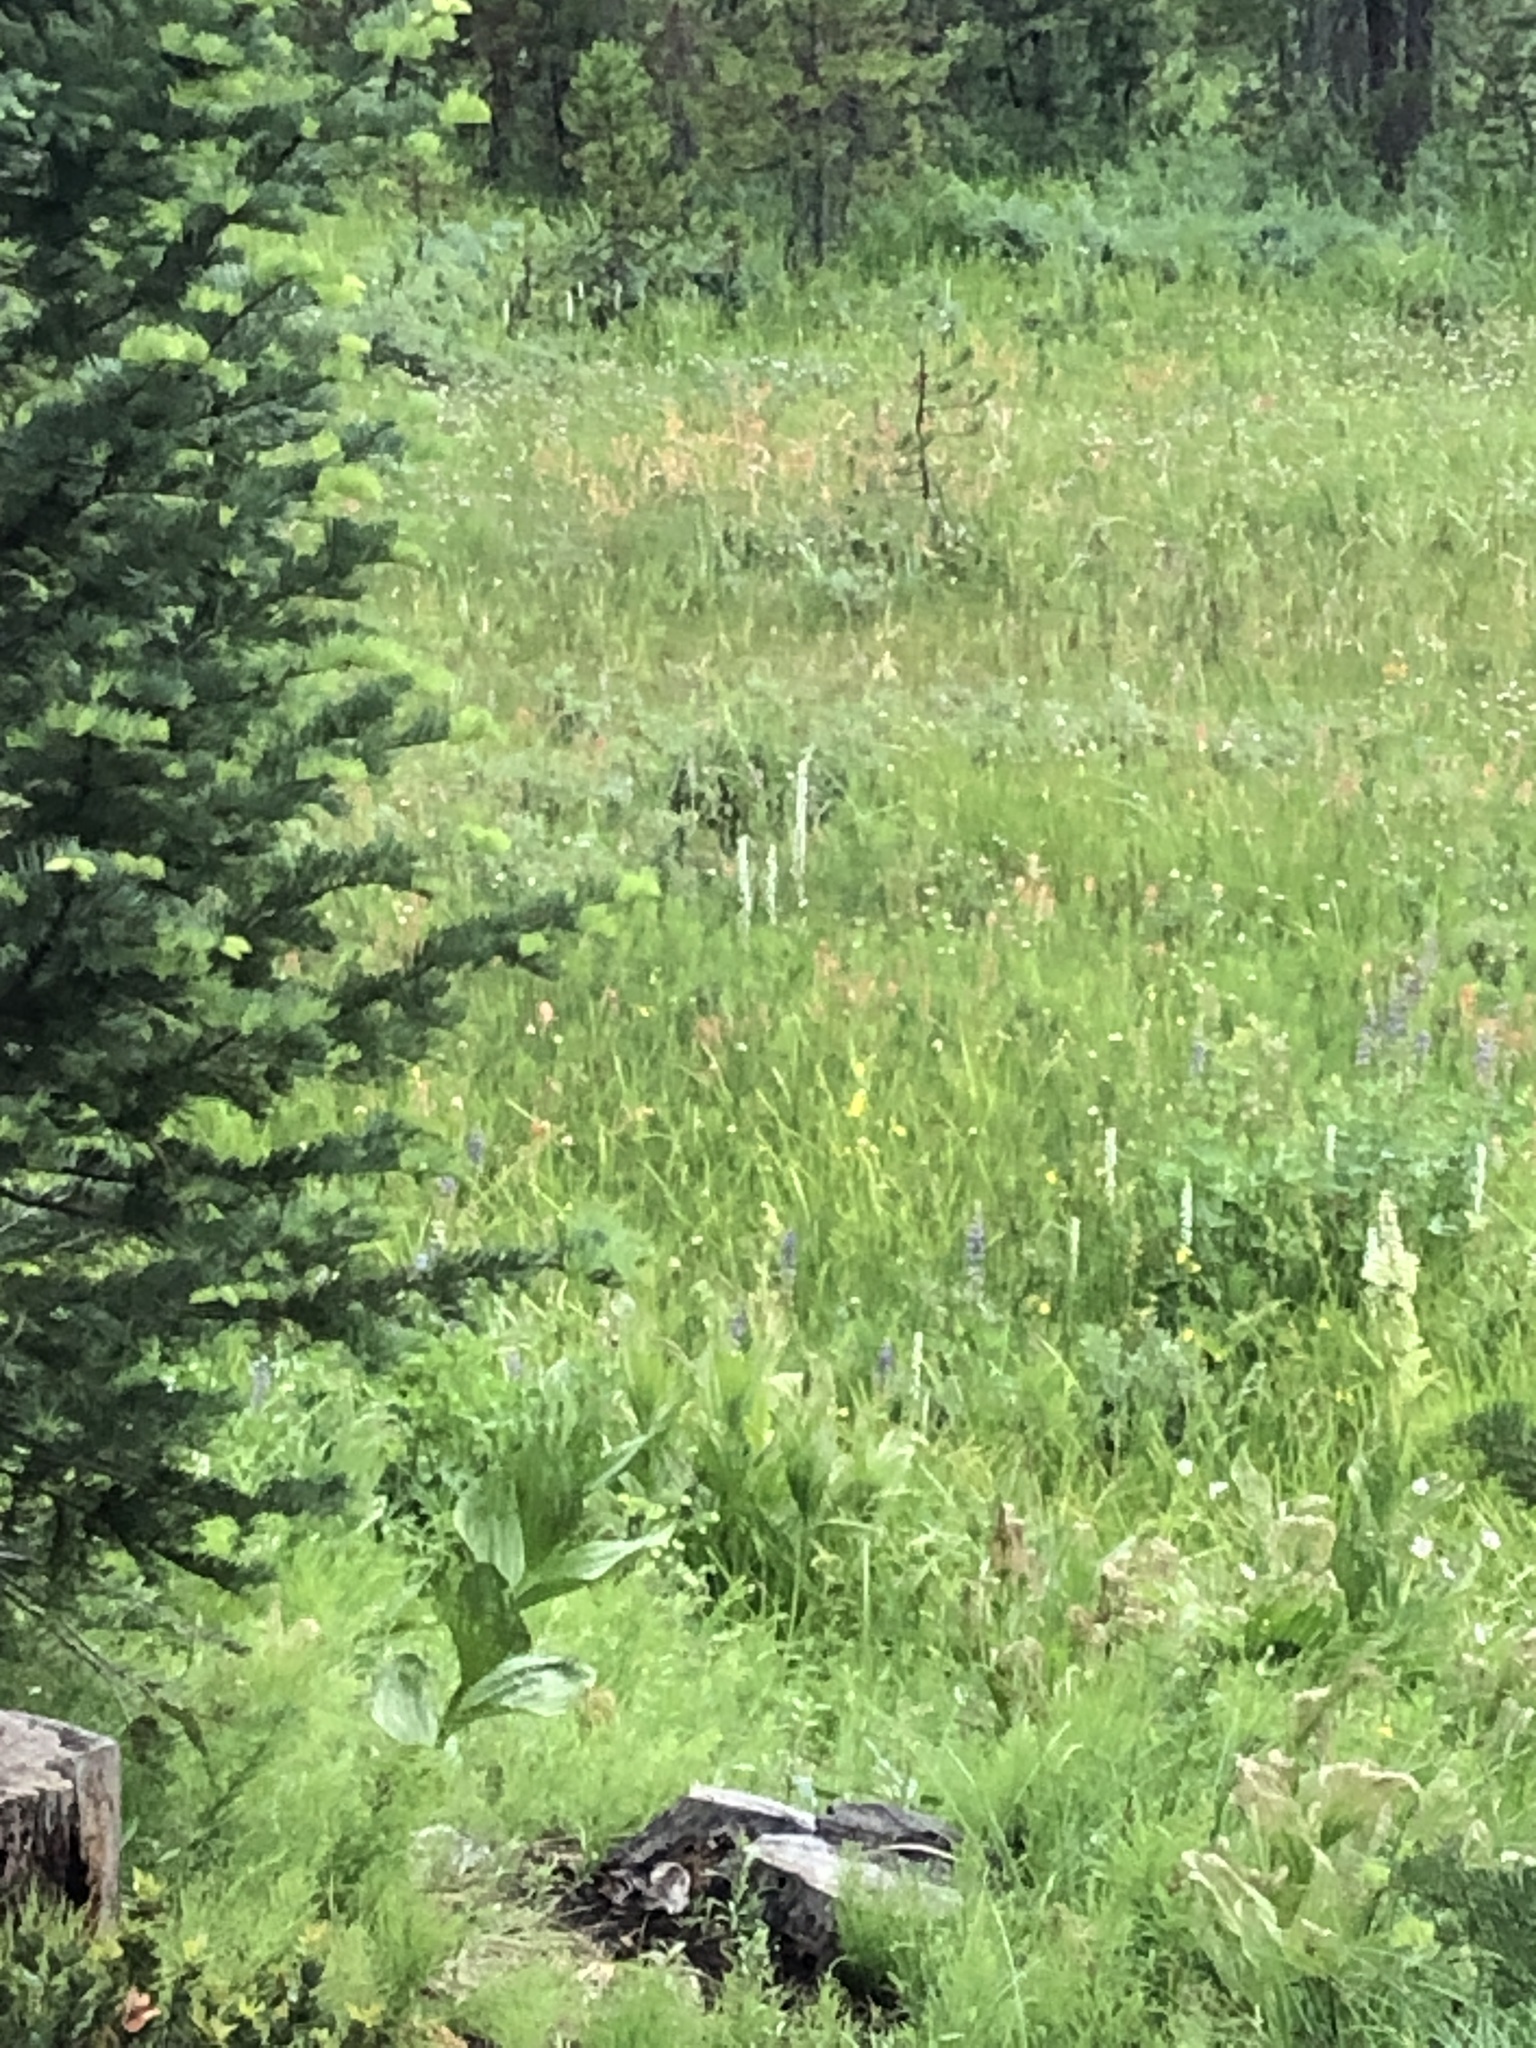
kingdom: Plantae
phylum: Tracheophyta
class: Liliopsida
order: Asparagales
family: Orchidaceae
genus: Platanthera
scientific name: Platanthera dilatata
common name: Bog candles
